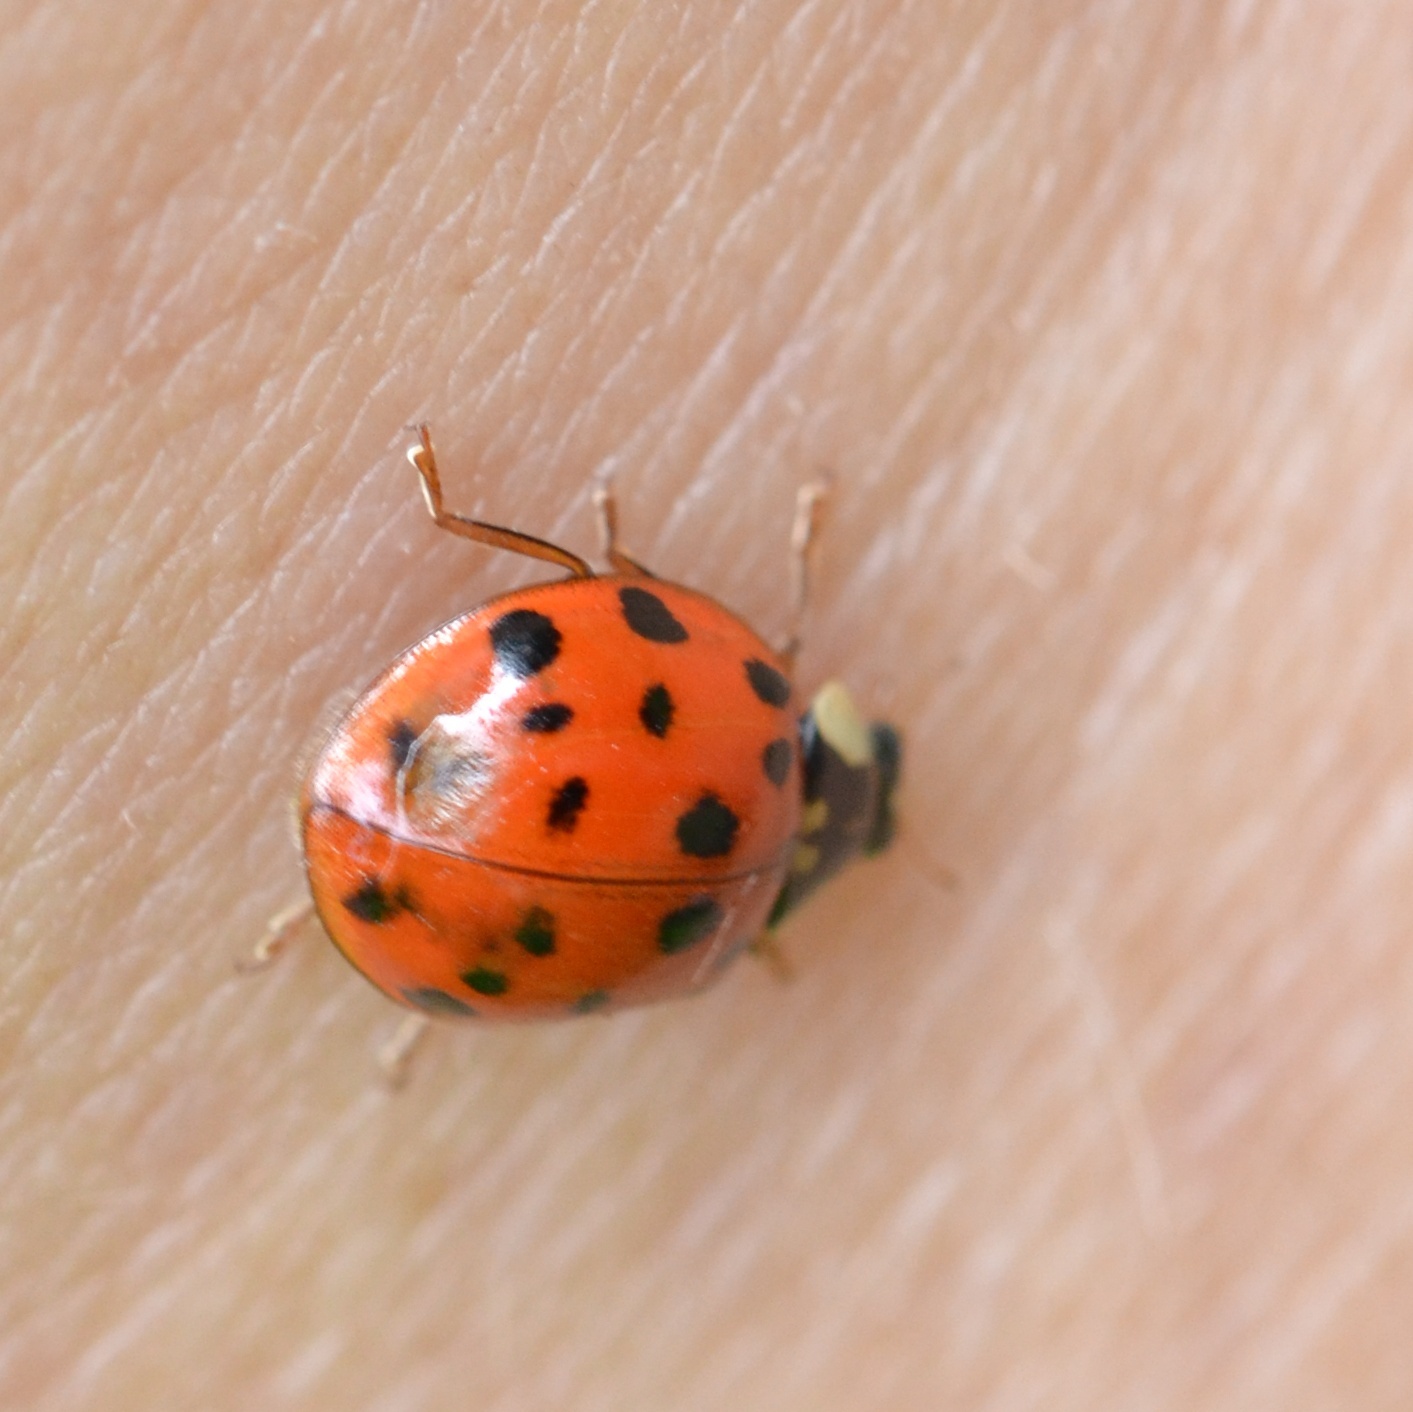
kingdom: Animalia
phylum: Arthropoda
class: Insecta
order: Coleoptera
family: Coccinellidae
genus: Harmonia
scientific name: Harmonia axyridis
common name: Harlequin ladybird
